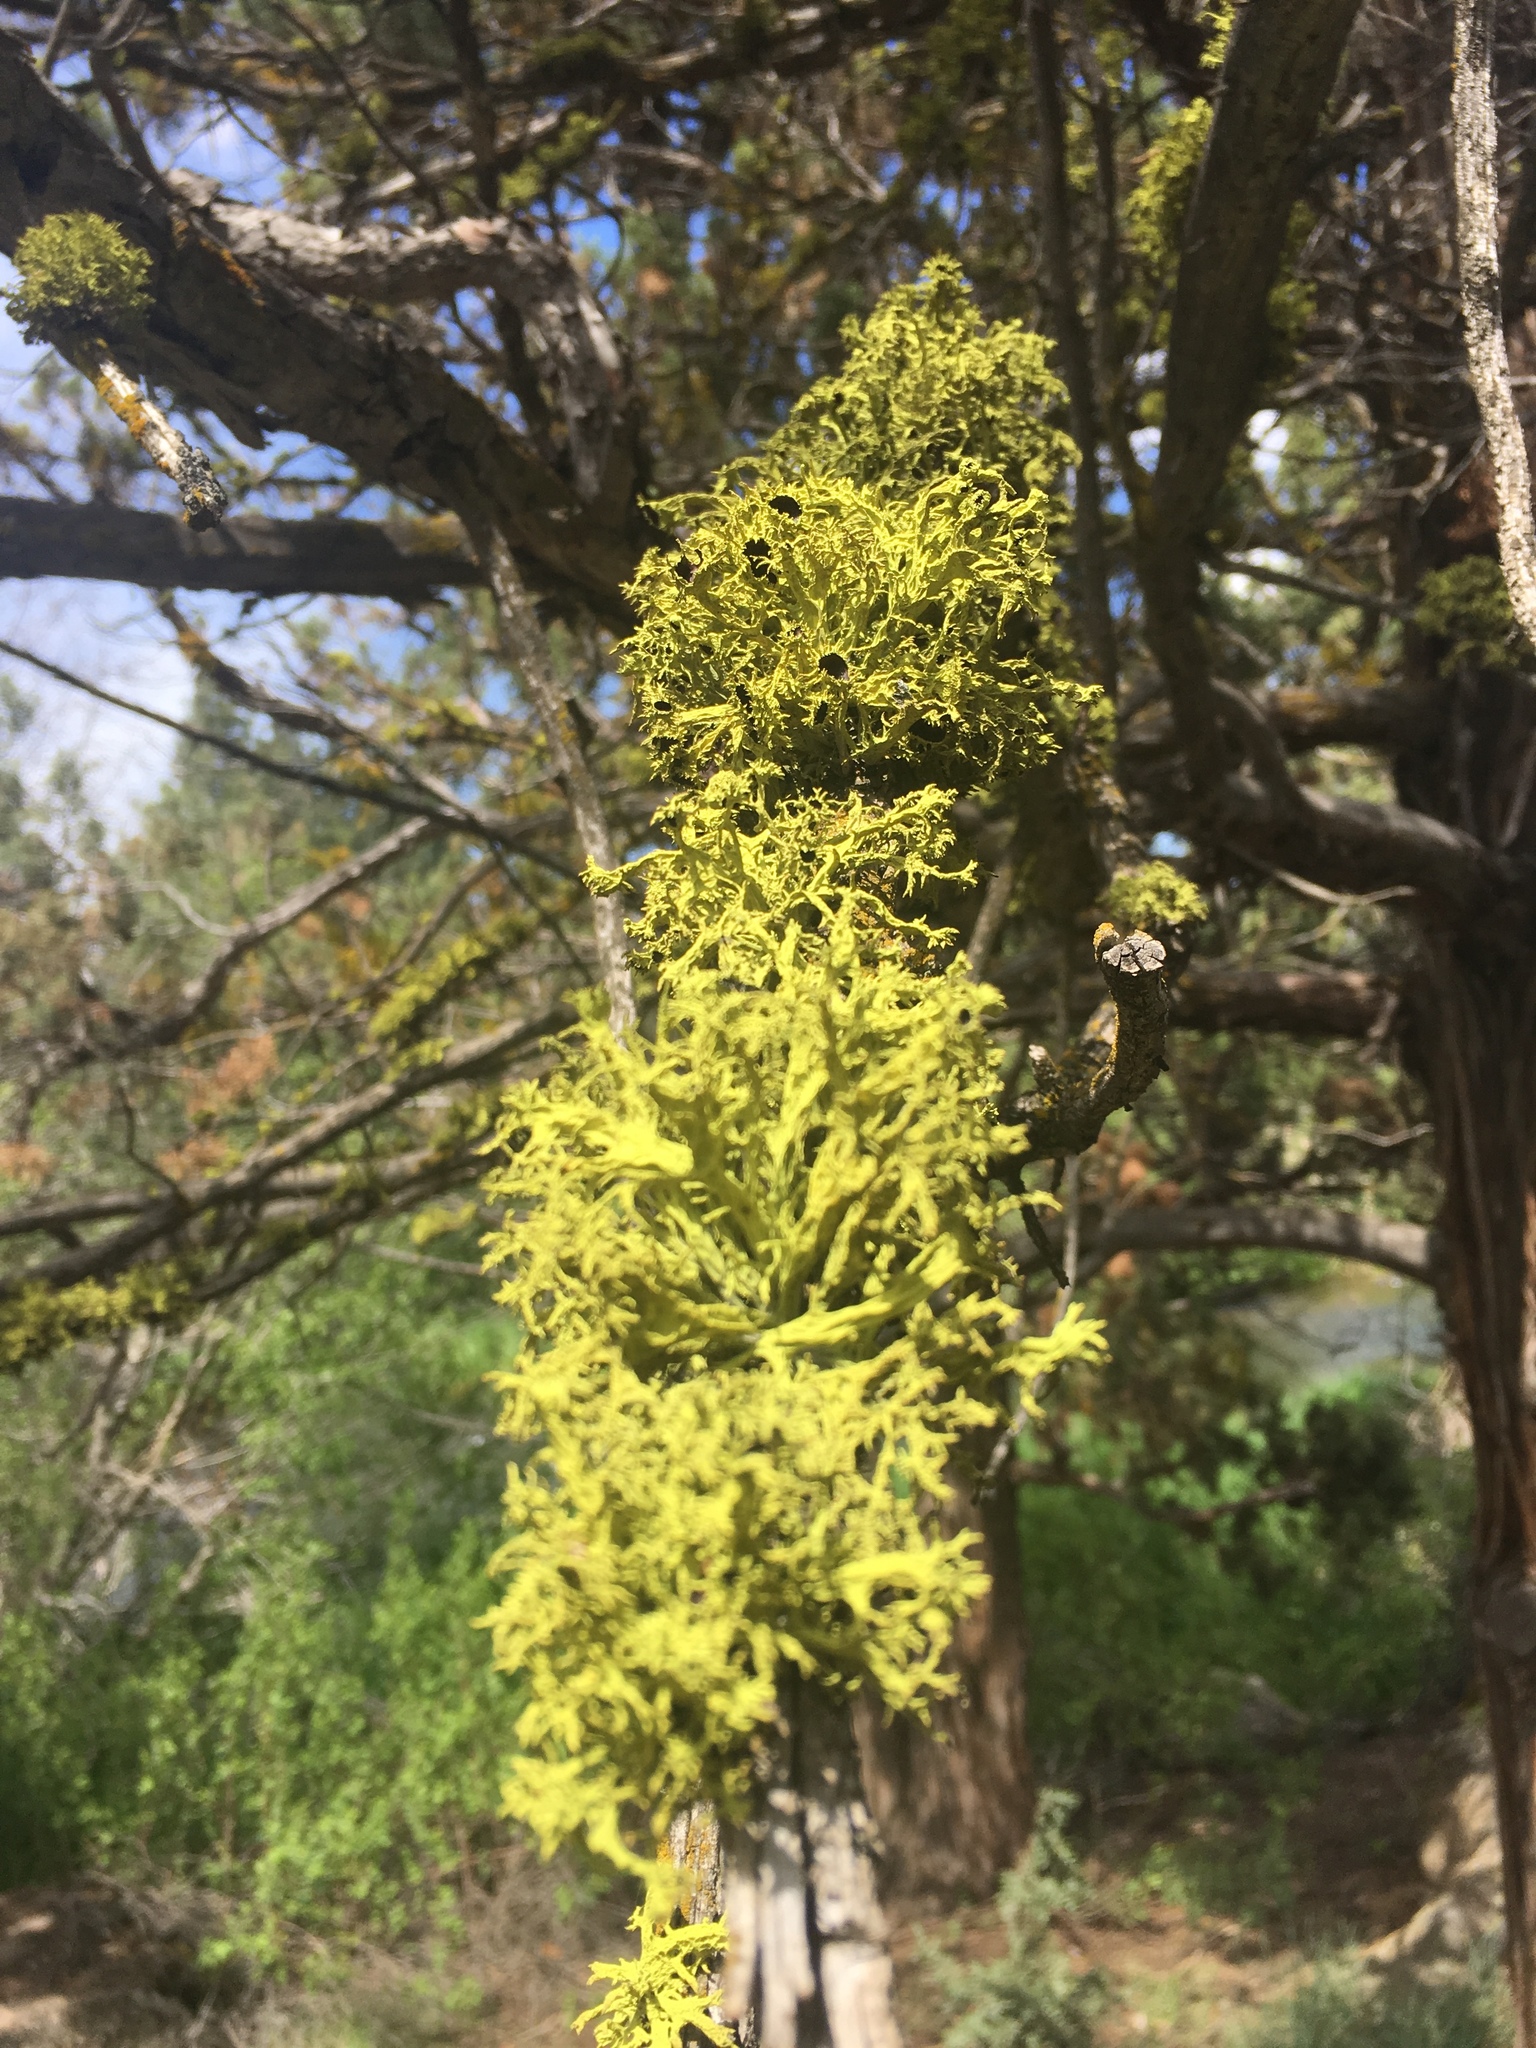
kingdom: Fungi
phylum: Ascomycota
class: Lecanoromycetes
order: Lecanorales
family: Parmeliaceae
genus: Letharia
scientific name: Letharia columbiana
